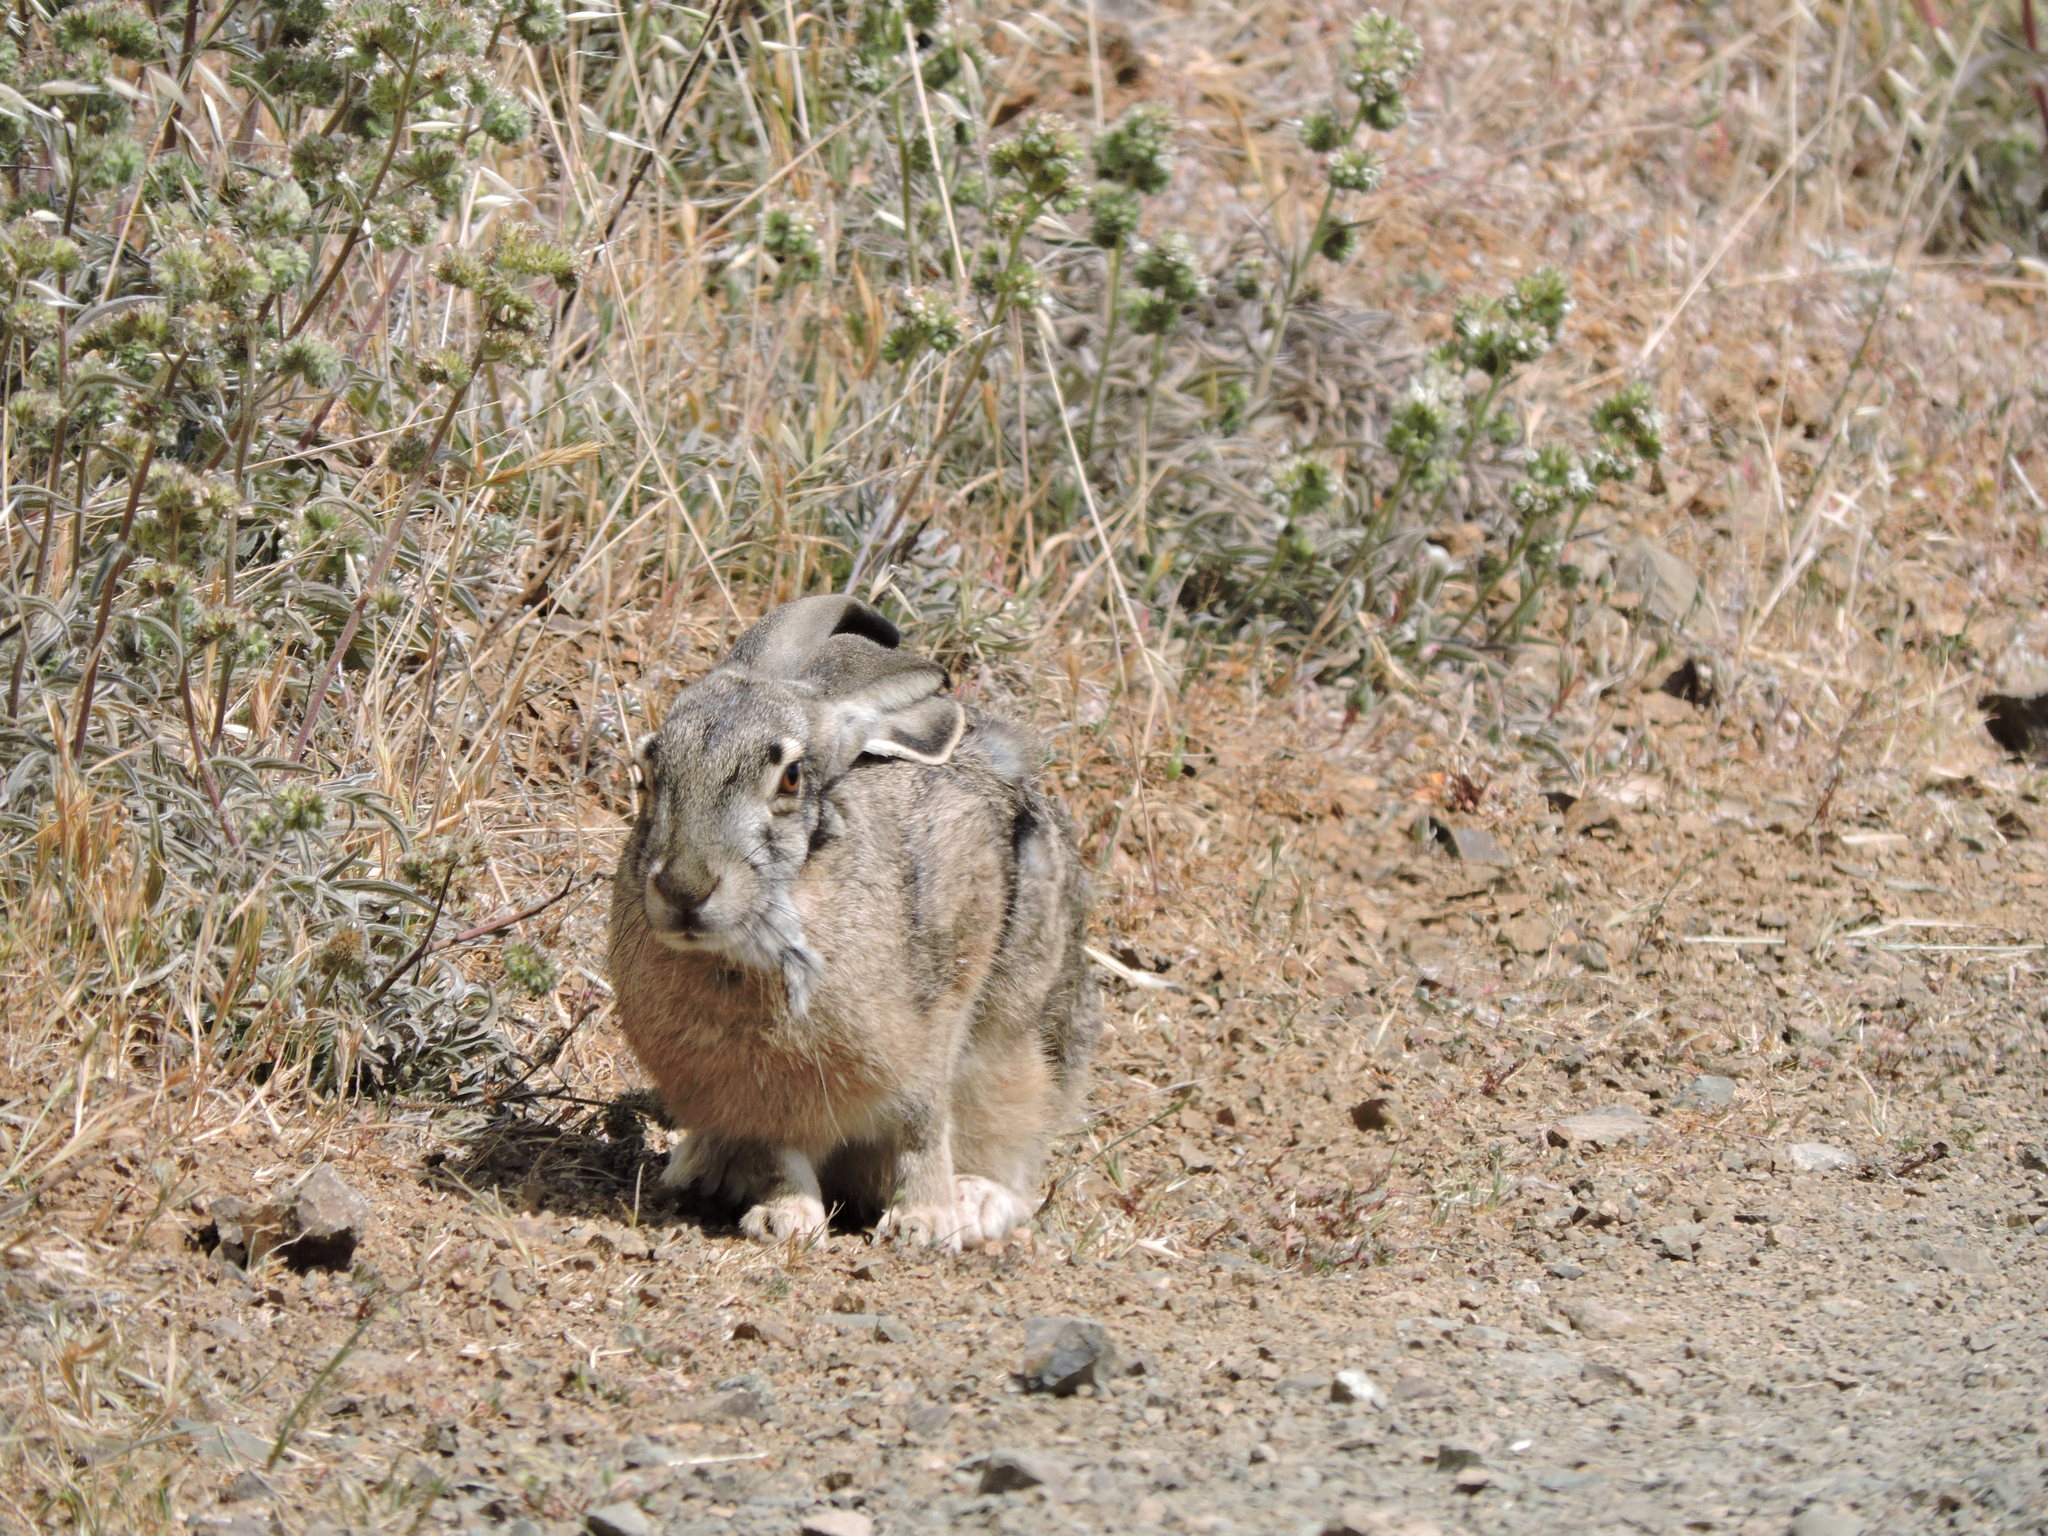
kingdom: Animalia
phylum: Chordata
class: Mammalia
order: Lagomorpha
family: Leporidae
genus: Lepus
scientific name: Lepus californicus
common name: Black-tailed jackrabbit
